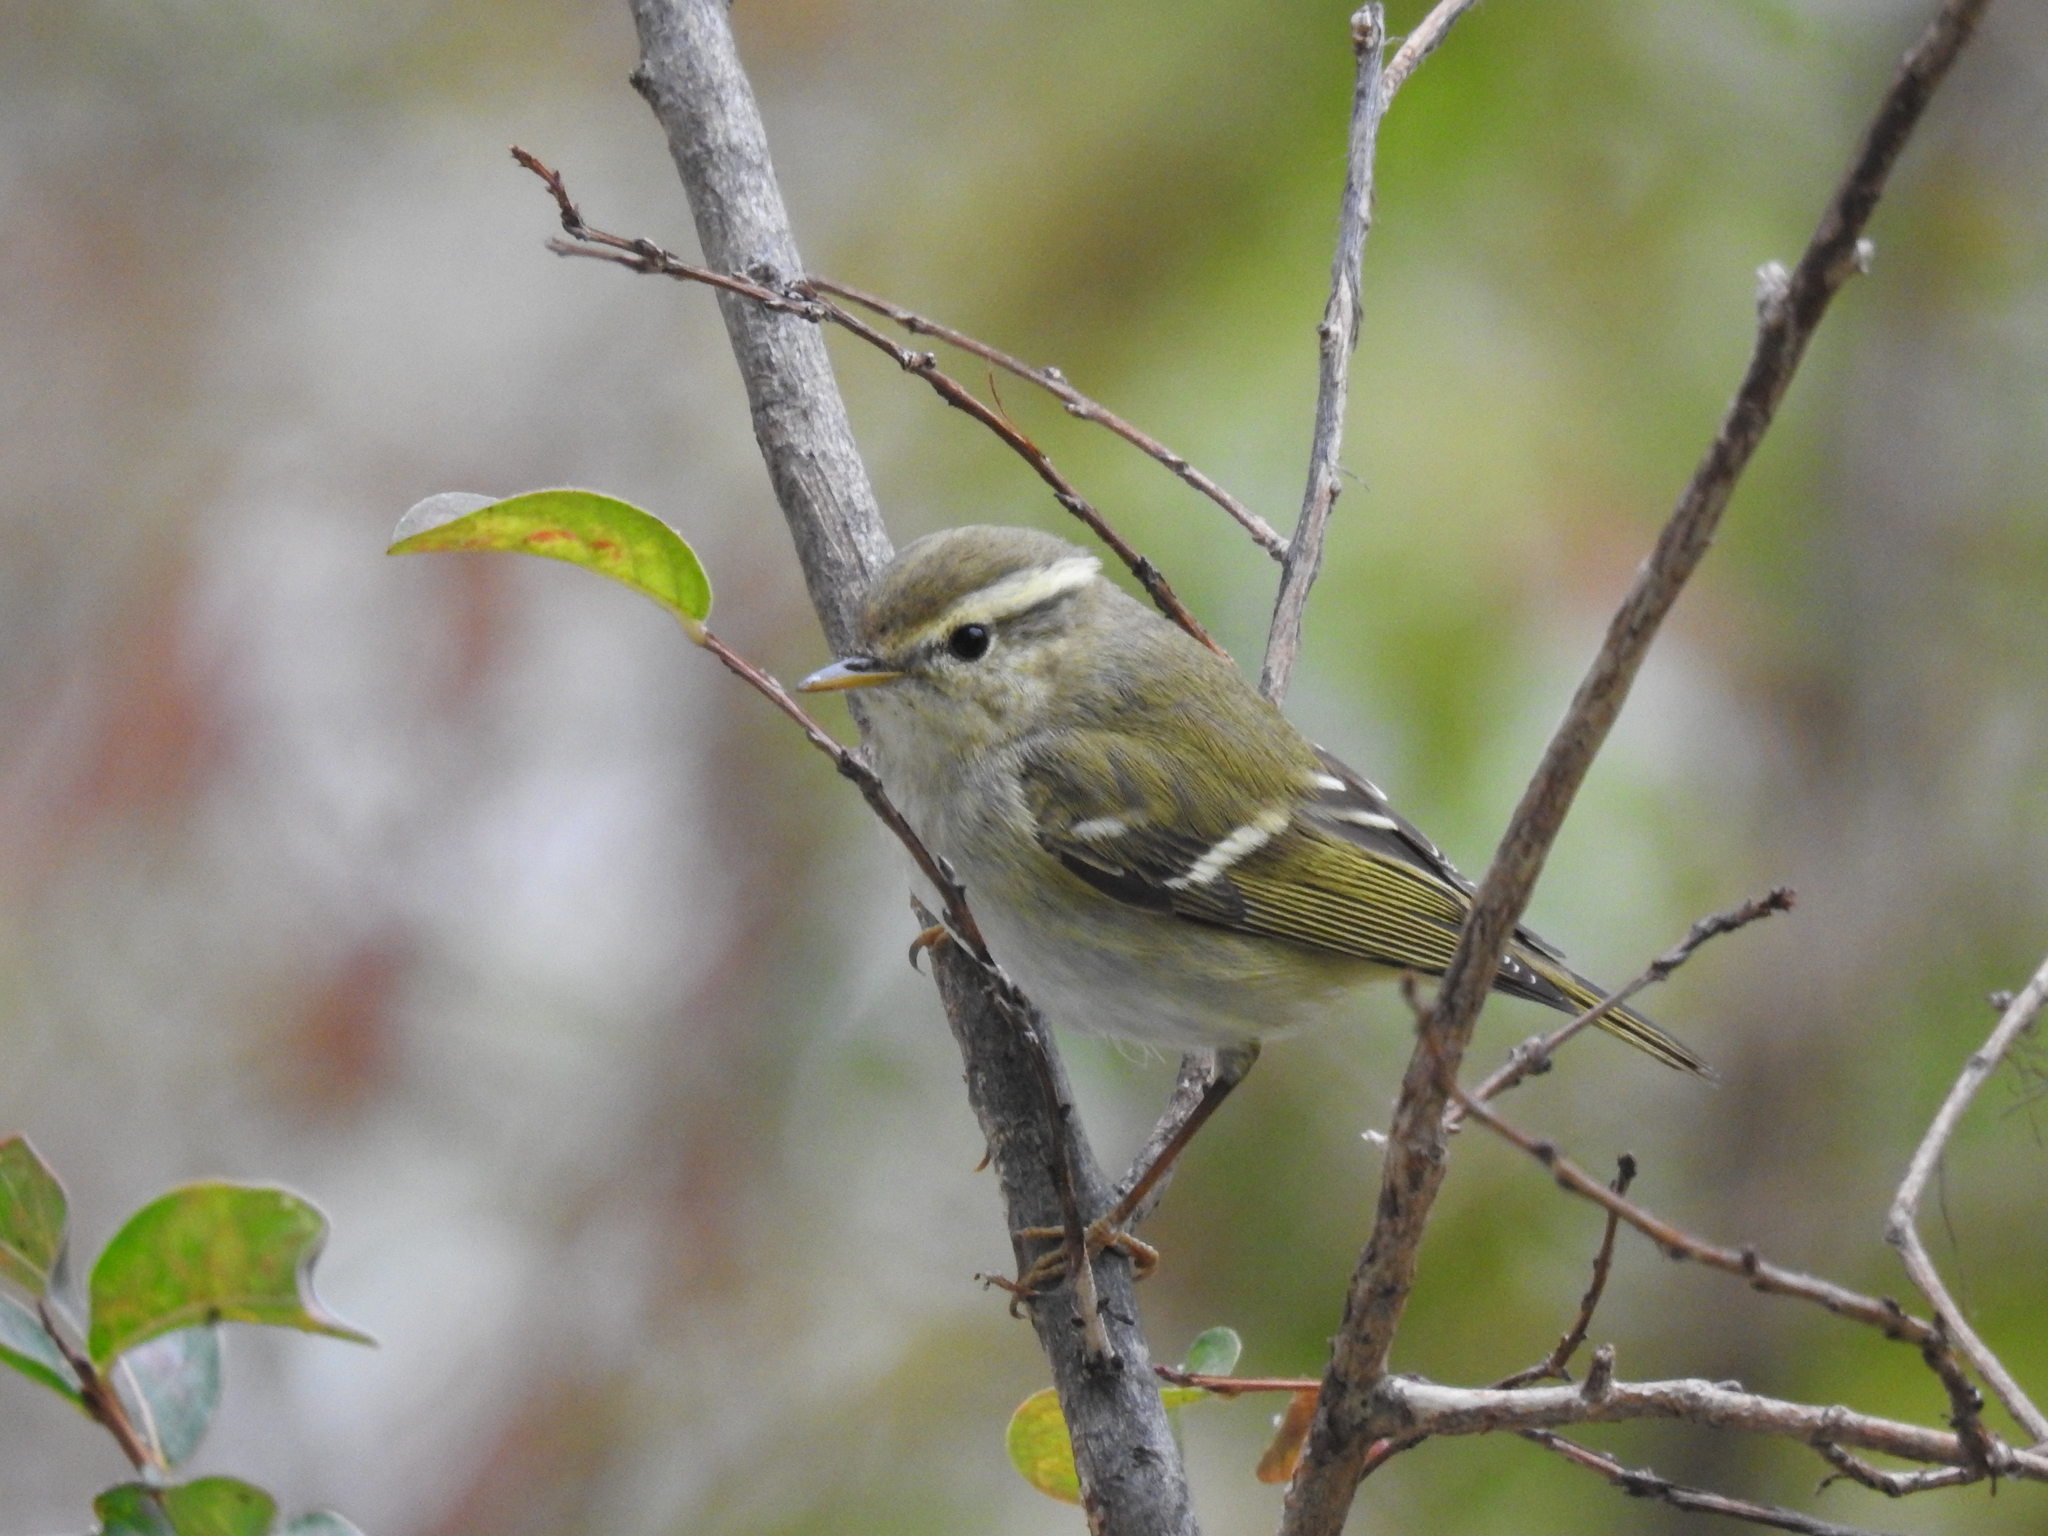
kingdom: Animalia
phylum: Chordata
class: Aves
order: Passeriformes
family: Phylloscopidae
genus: Phylloscopus
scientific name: Phylloscopus inornatus
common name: Yellow-browed warbler
